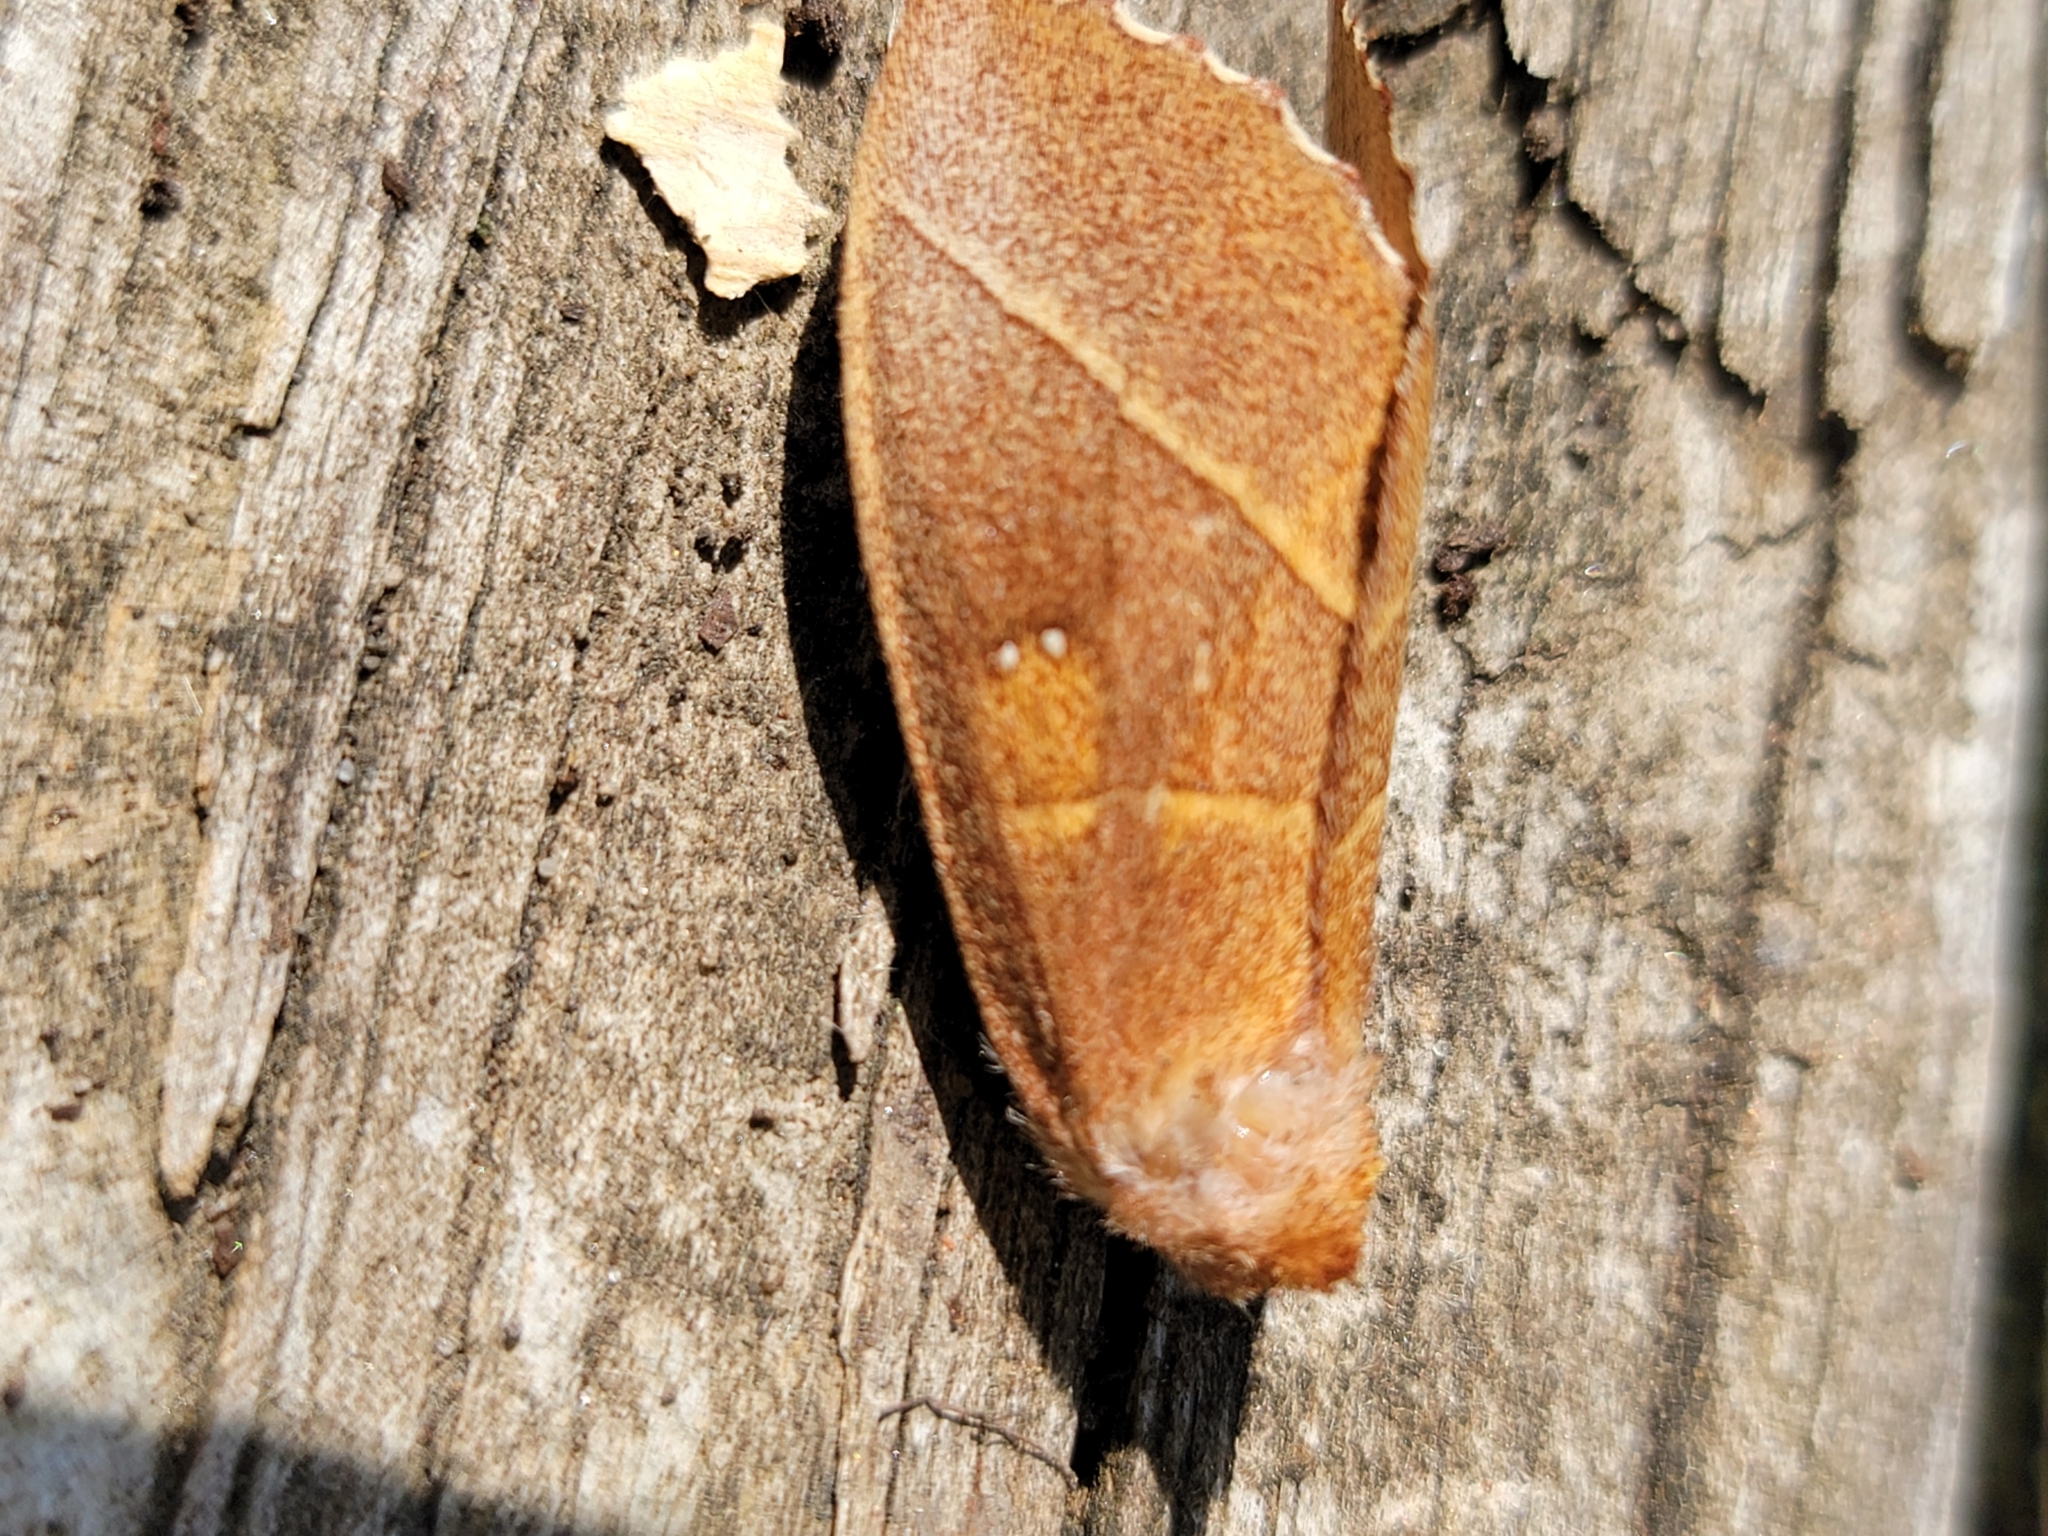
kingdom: Animalia
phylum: Arthropoda
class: Insecta
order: Lepidoptera
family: Notodontidae
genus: Nadata
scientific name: Nadata gibbosa
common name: White-dotted prominent
